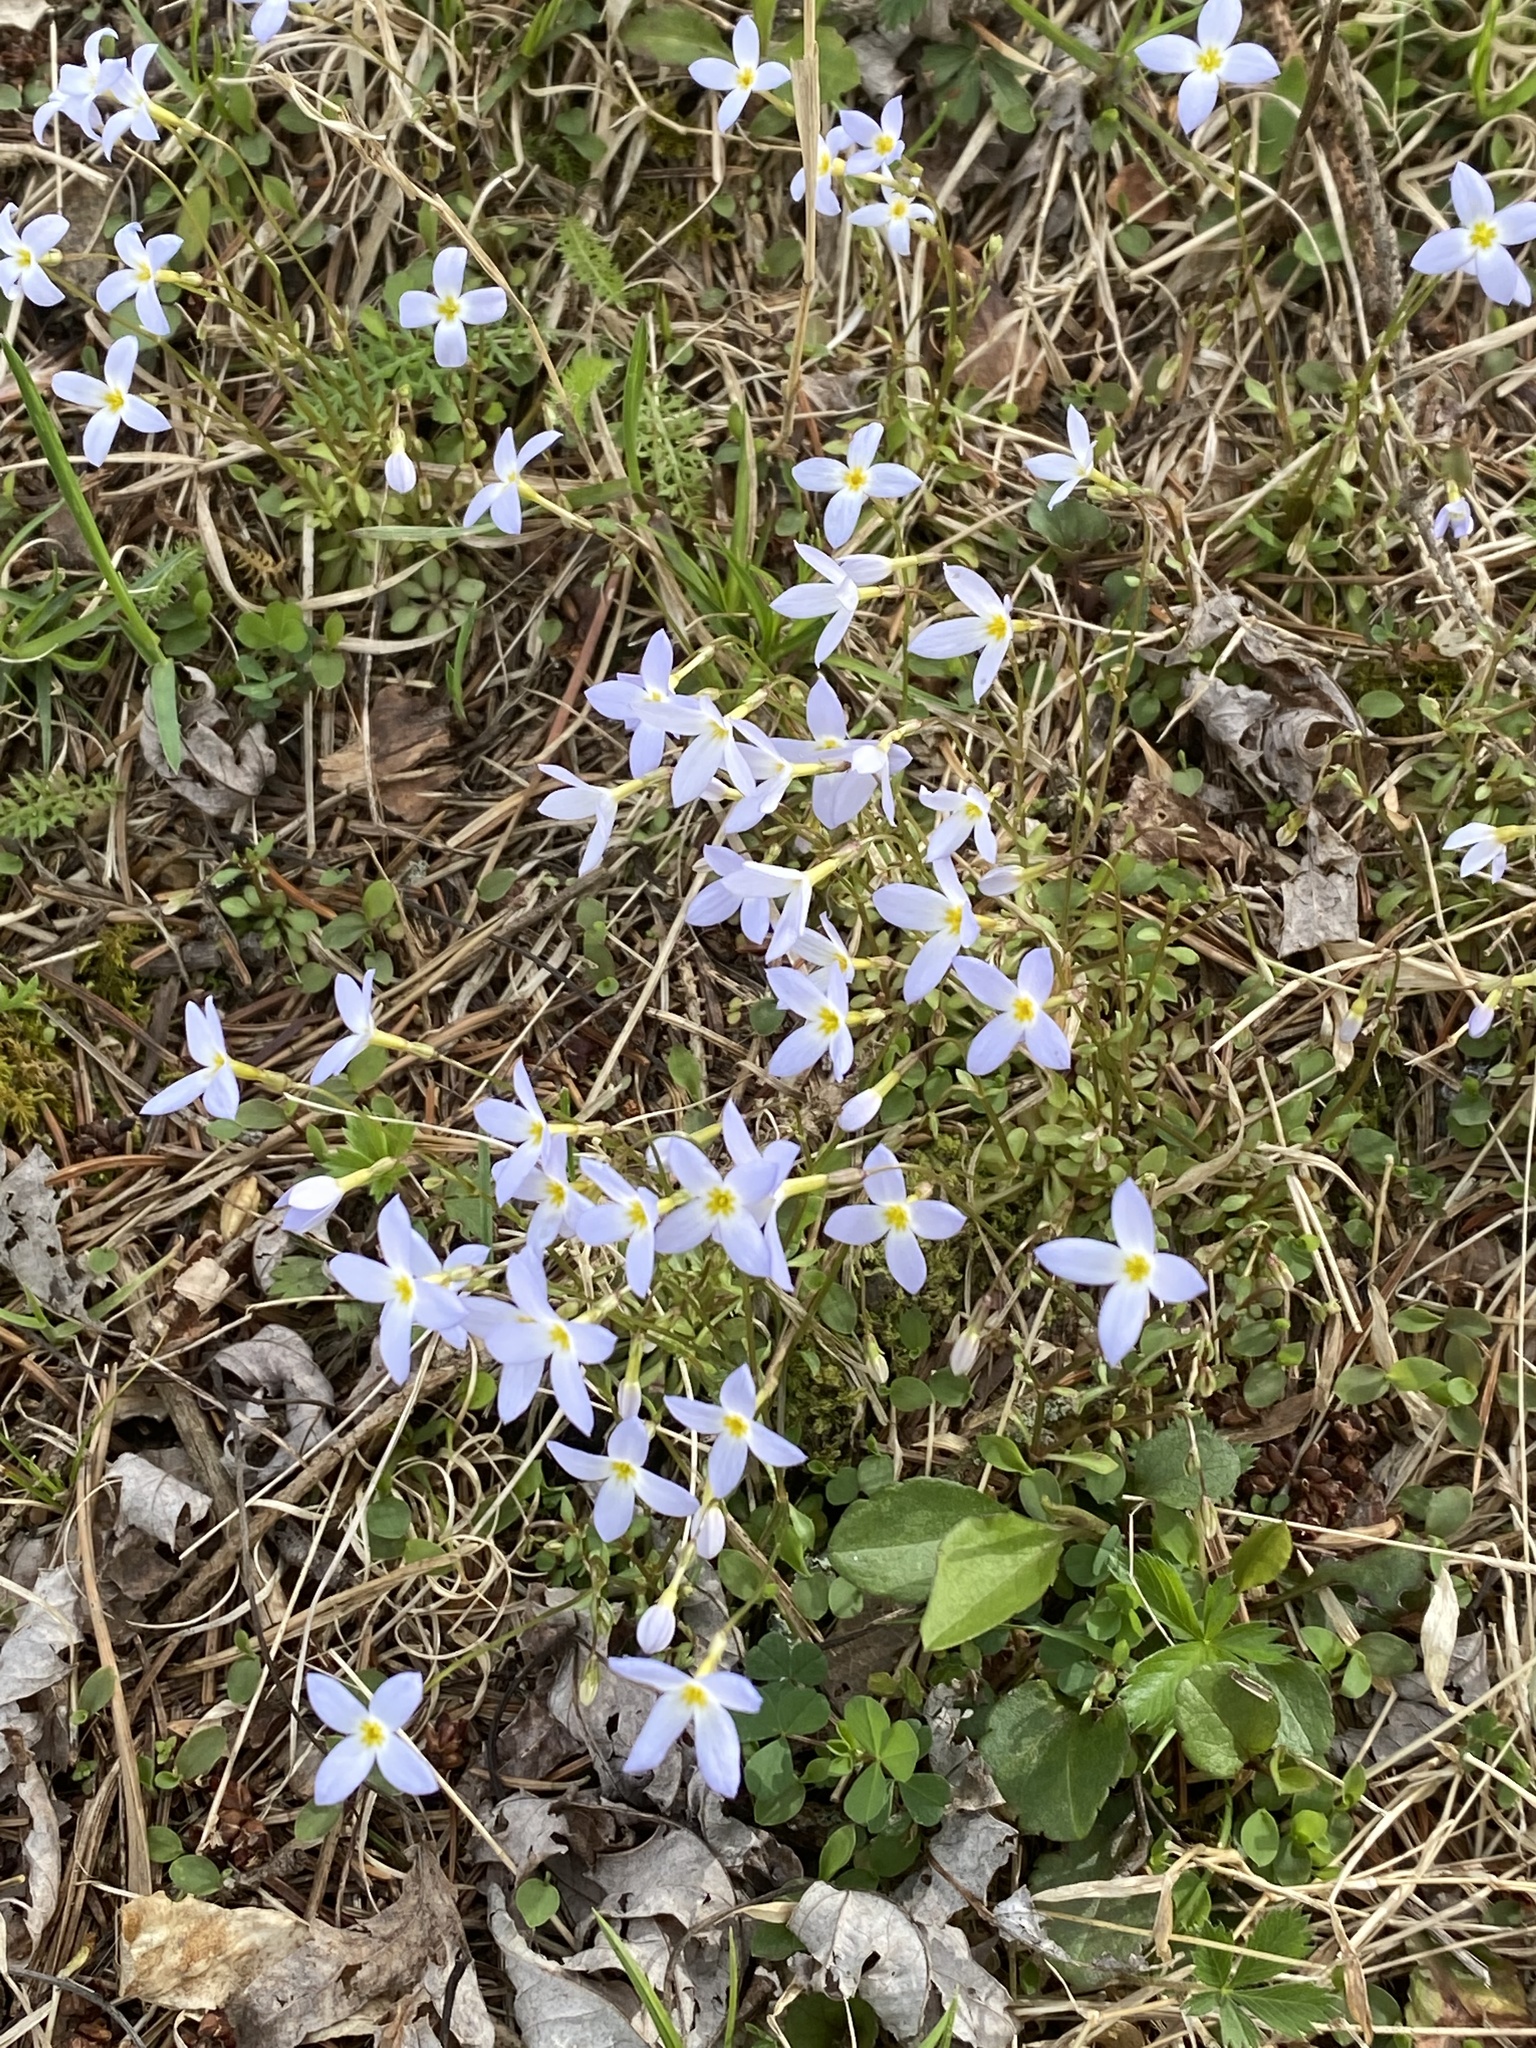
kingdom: Plantae
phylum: Tracheophyta
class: Magnoliopsida
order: Gentianales
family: Rubiaceae
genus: Houstonia
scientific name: Houstonia caerulea
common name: Bluets
